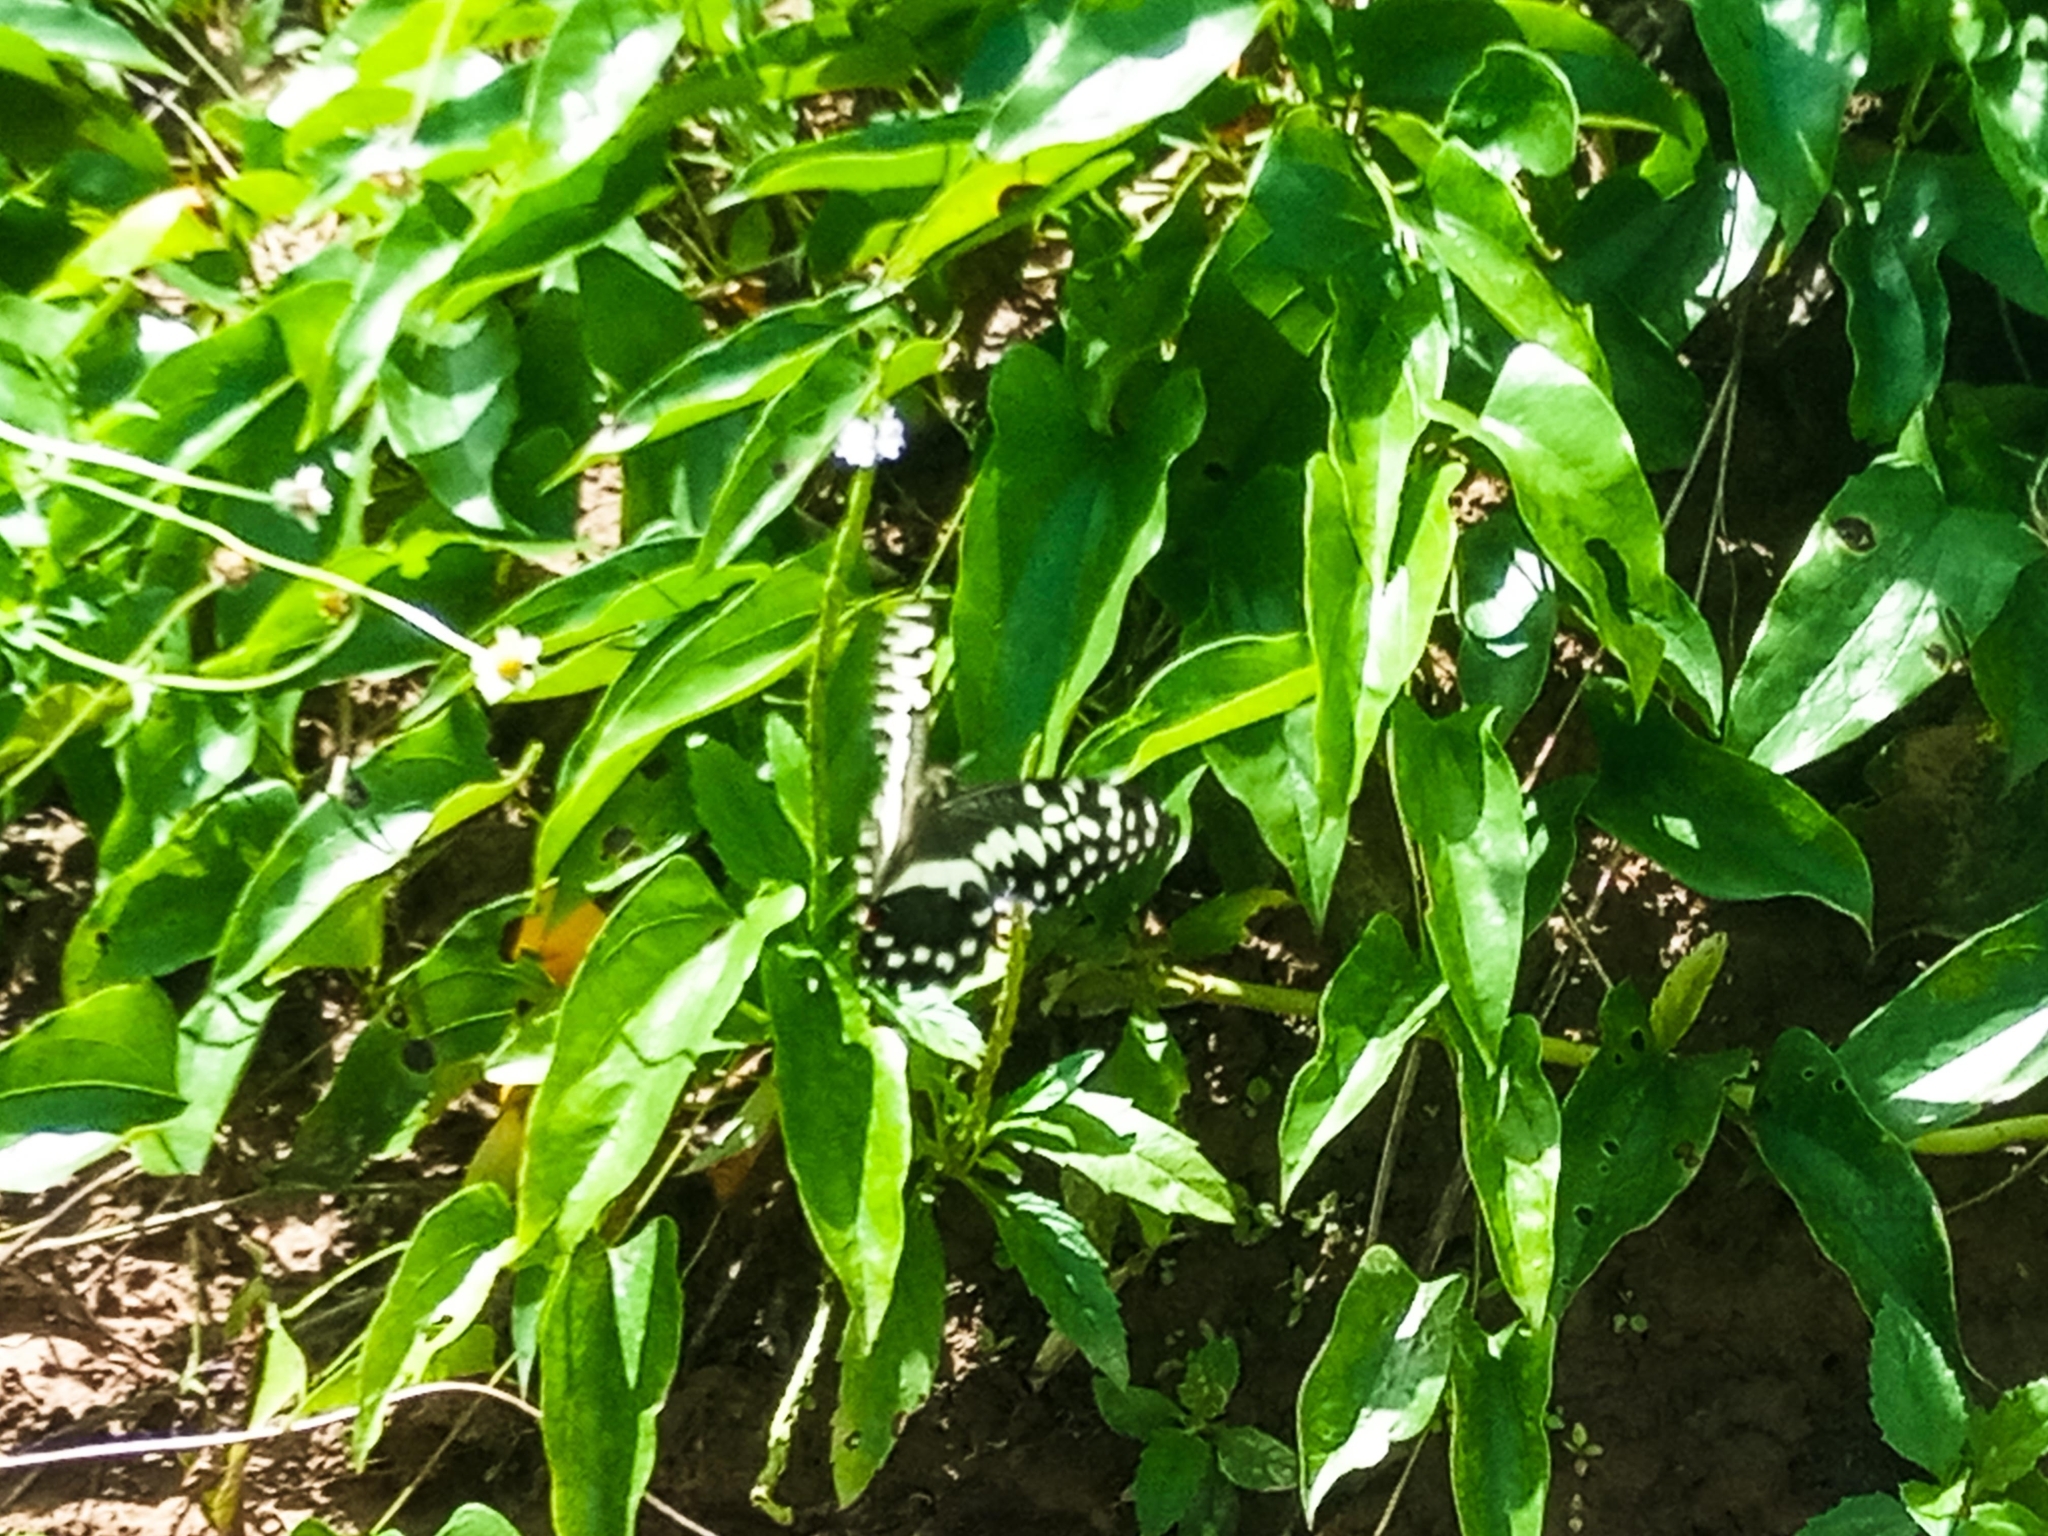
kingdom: Animalia
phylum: Arthropoda
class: Insecta
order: Lepidoptera
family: Papilionidae
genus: Papilio
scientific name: Papilio demodocus
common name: Christmas butterfly
